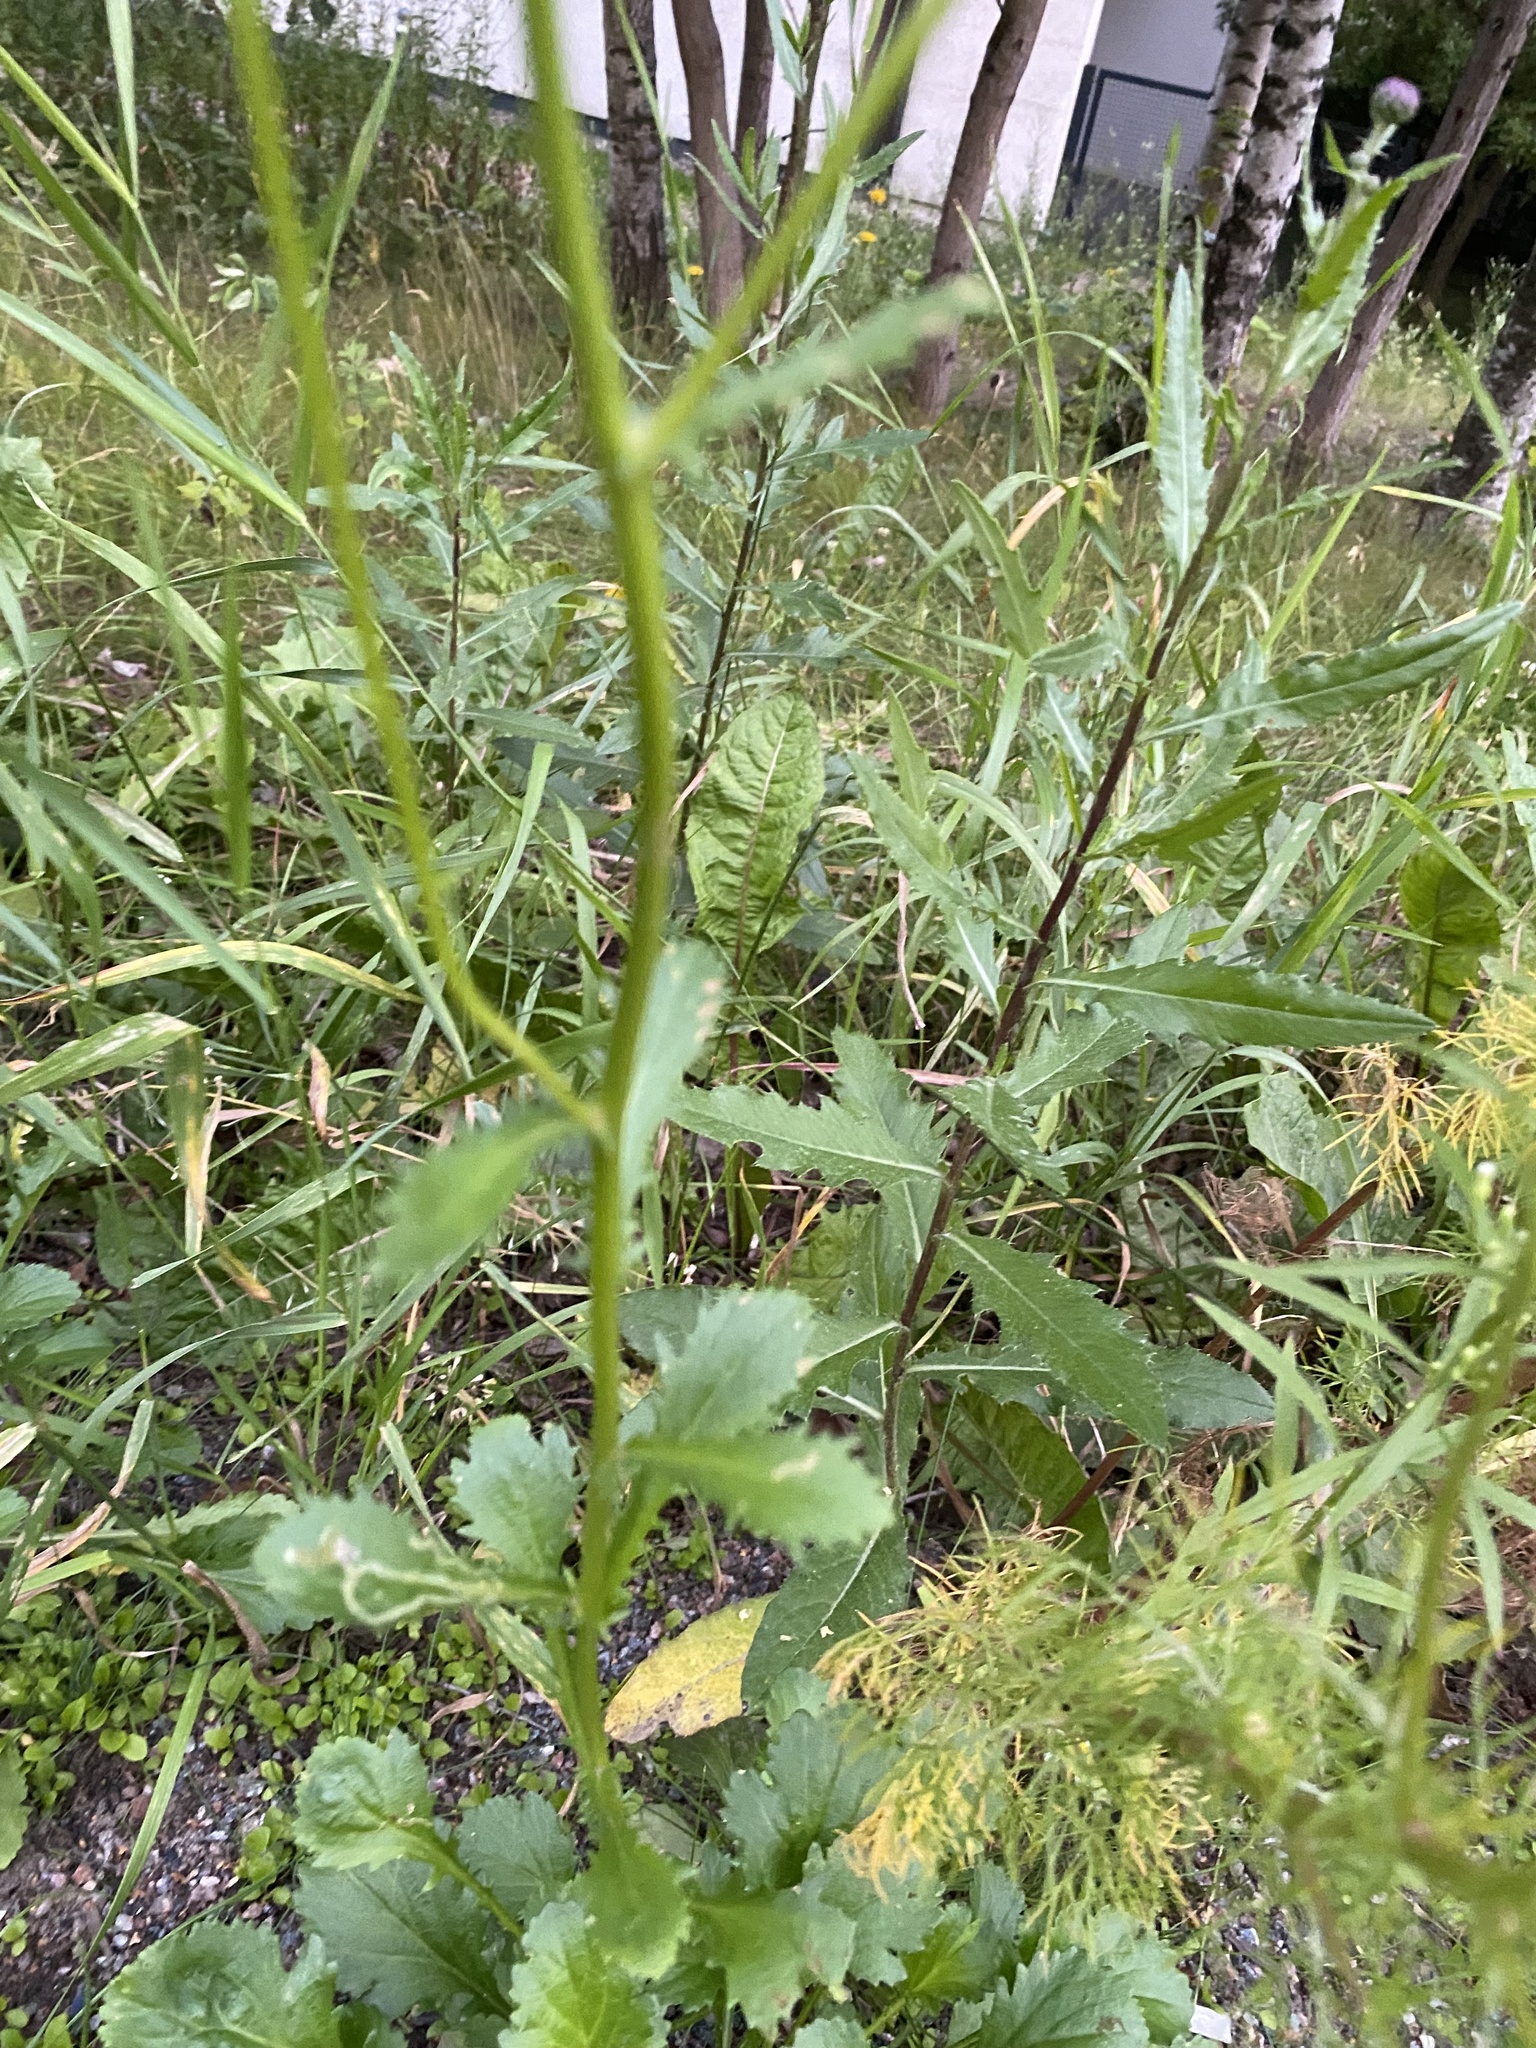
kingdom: Plantae
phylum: Tracheophyta
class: Magnoliopsida
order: Asterales
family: Asteraceae
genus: Leucanthemum
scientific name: Leucanthemum vulgare
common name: Oxeye daisy
